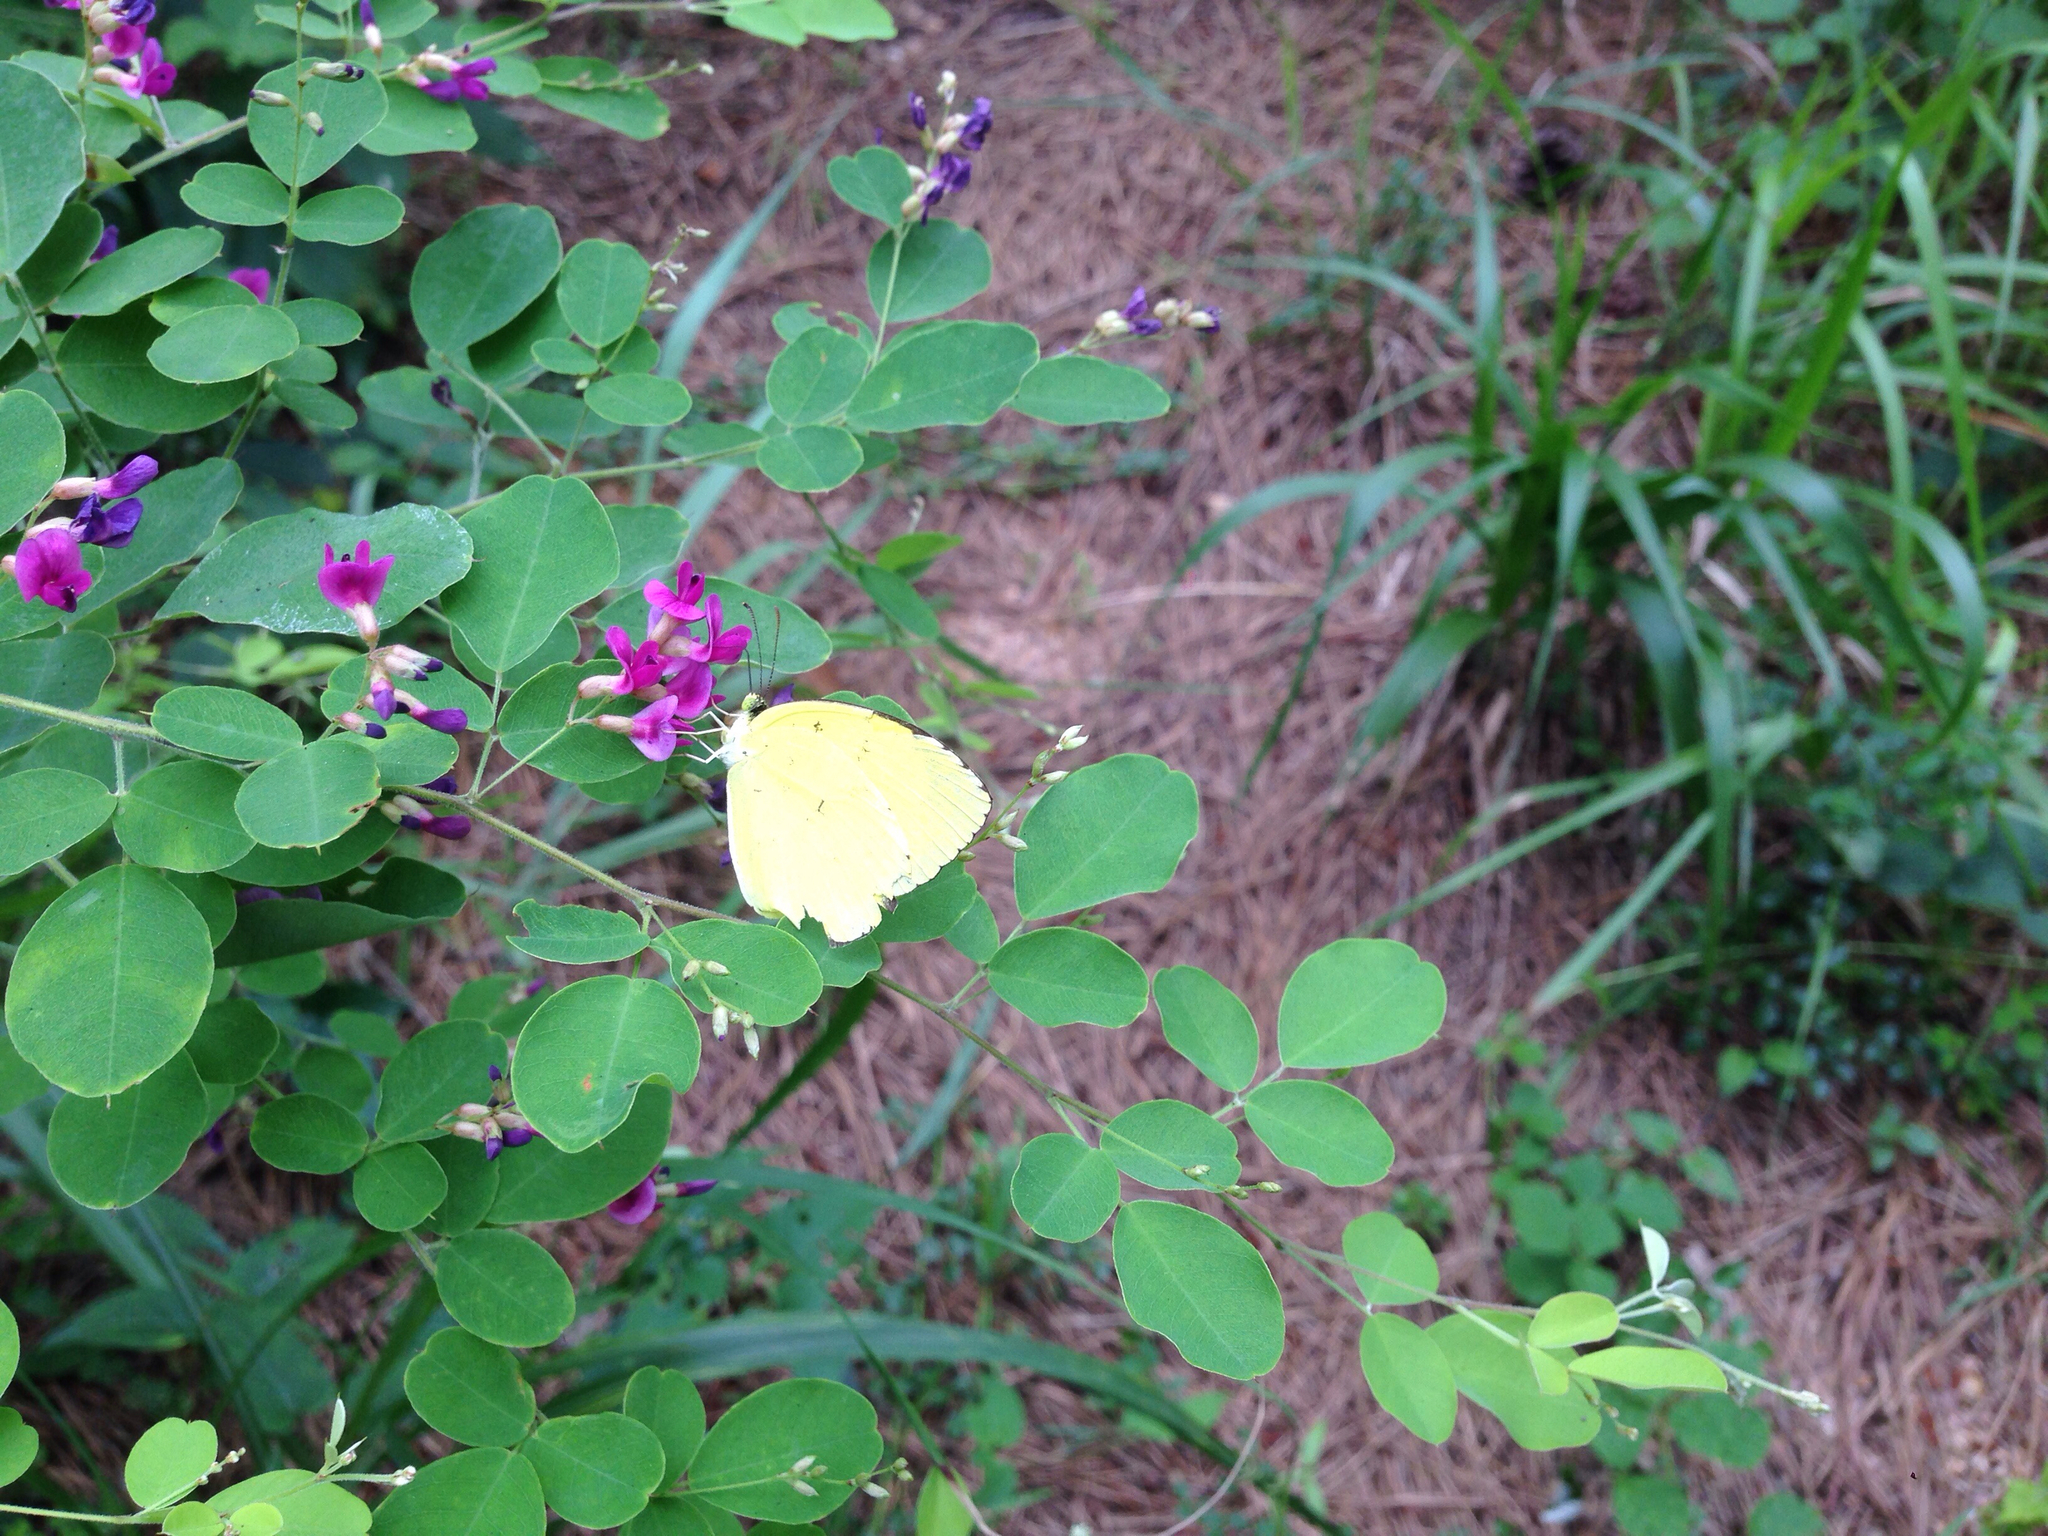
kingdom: Animalia
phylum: Arthropoda
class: Insecta
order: Lepidoptera
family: Pieridae
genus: Eurema
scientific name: Eurema mandarina
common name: Japanese common grass yellow
